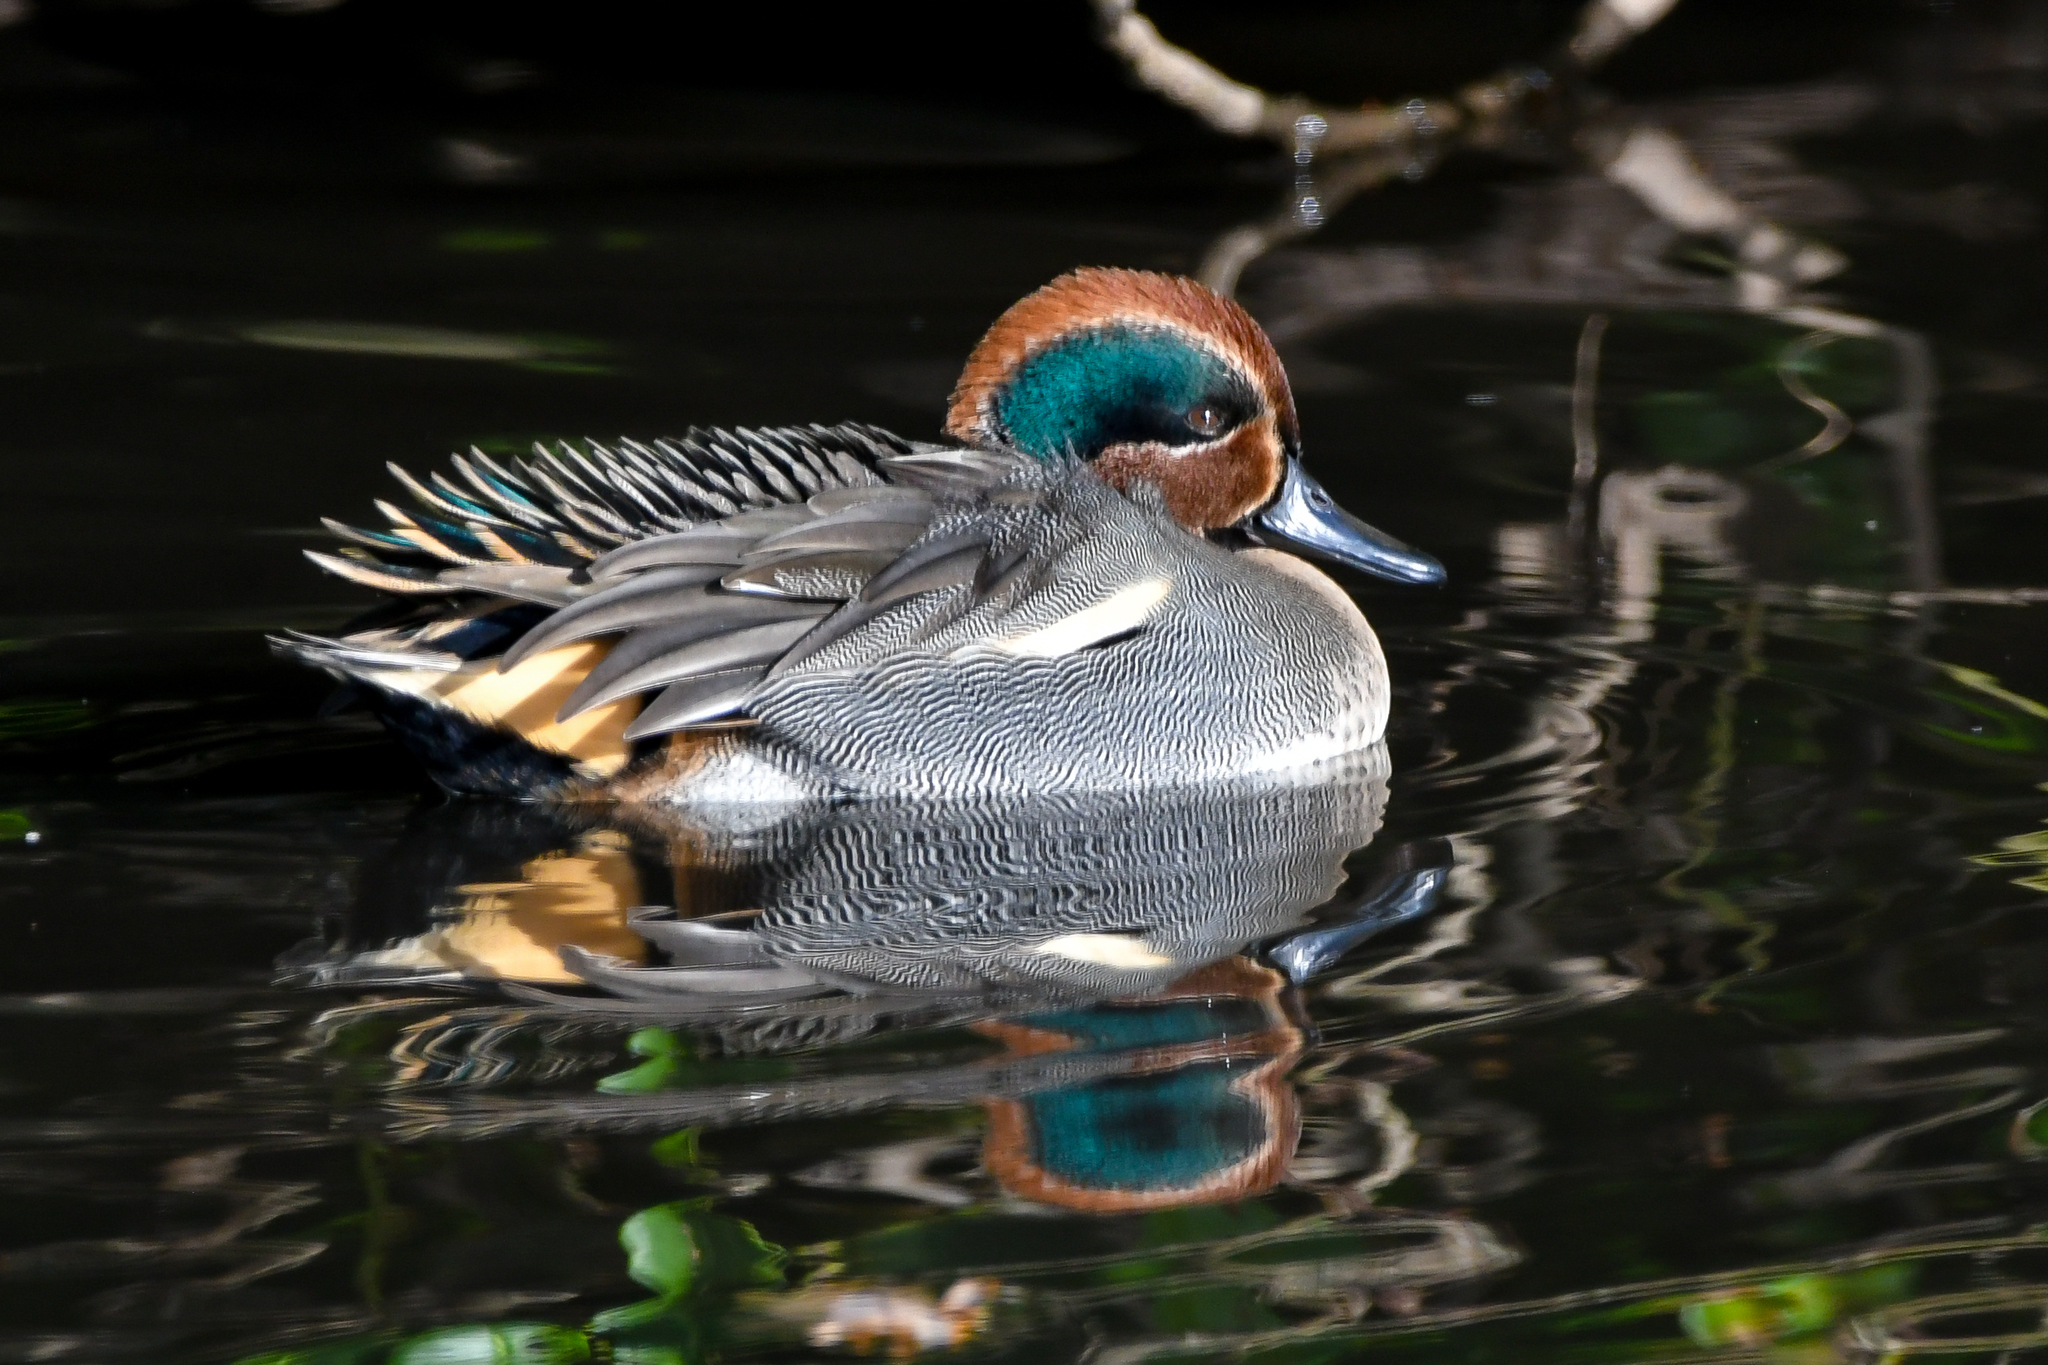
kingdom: Animalia
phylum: Chordata
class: Aves
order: Anseriformes
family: Anatidae
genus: Anas
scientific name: Anas crecca
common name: Eurasian teal
